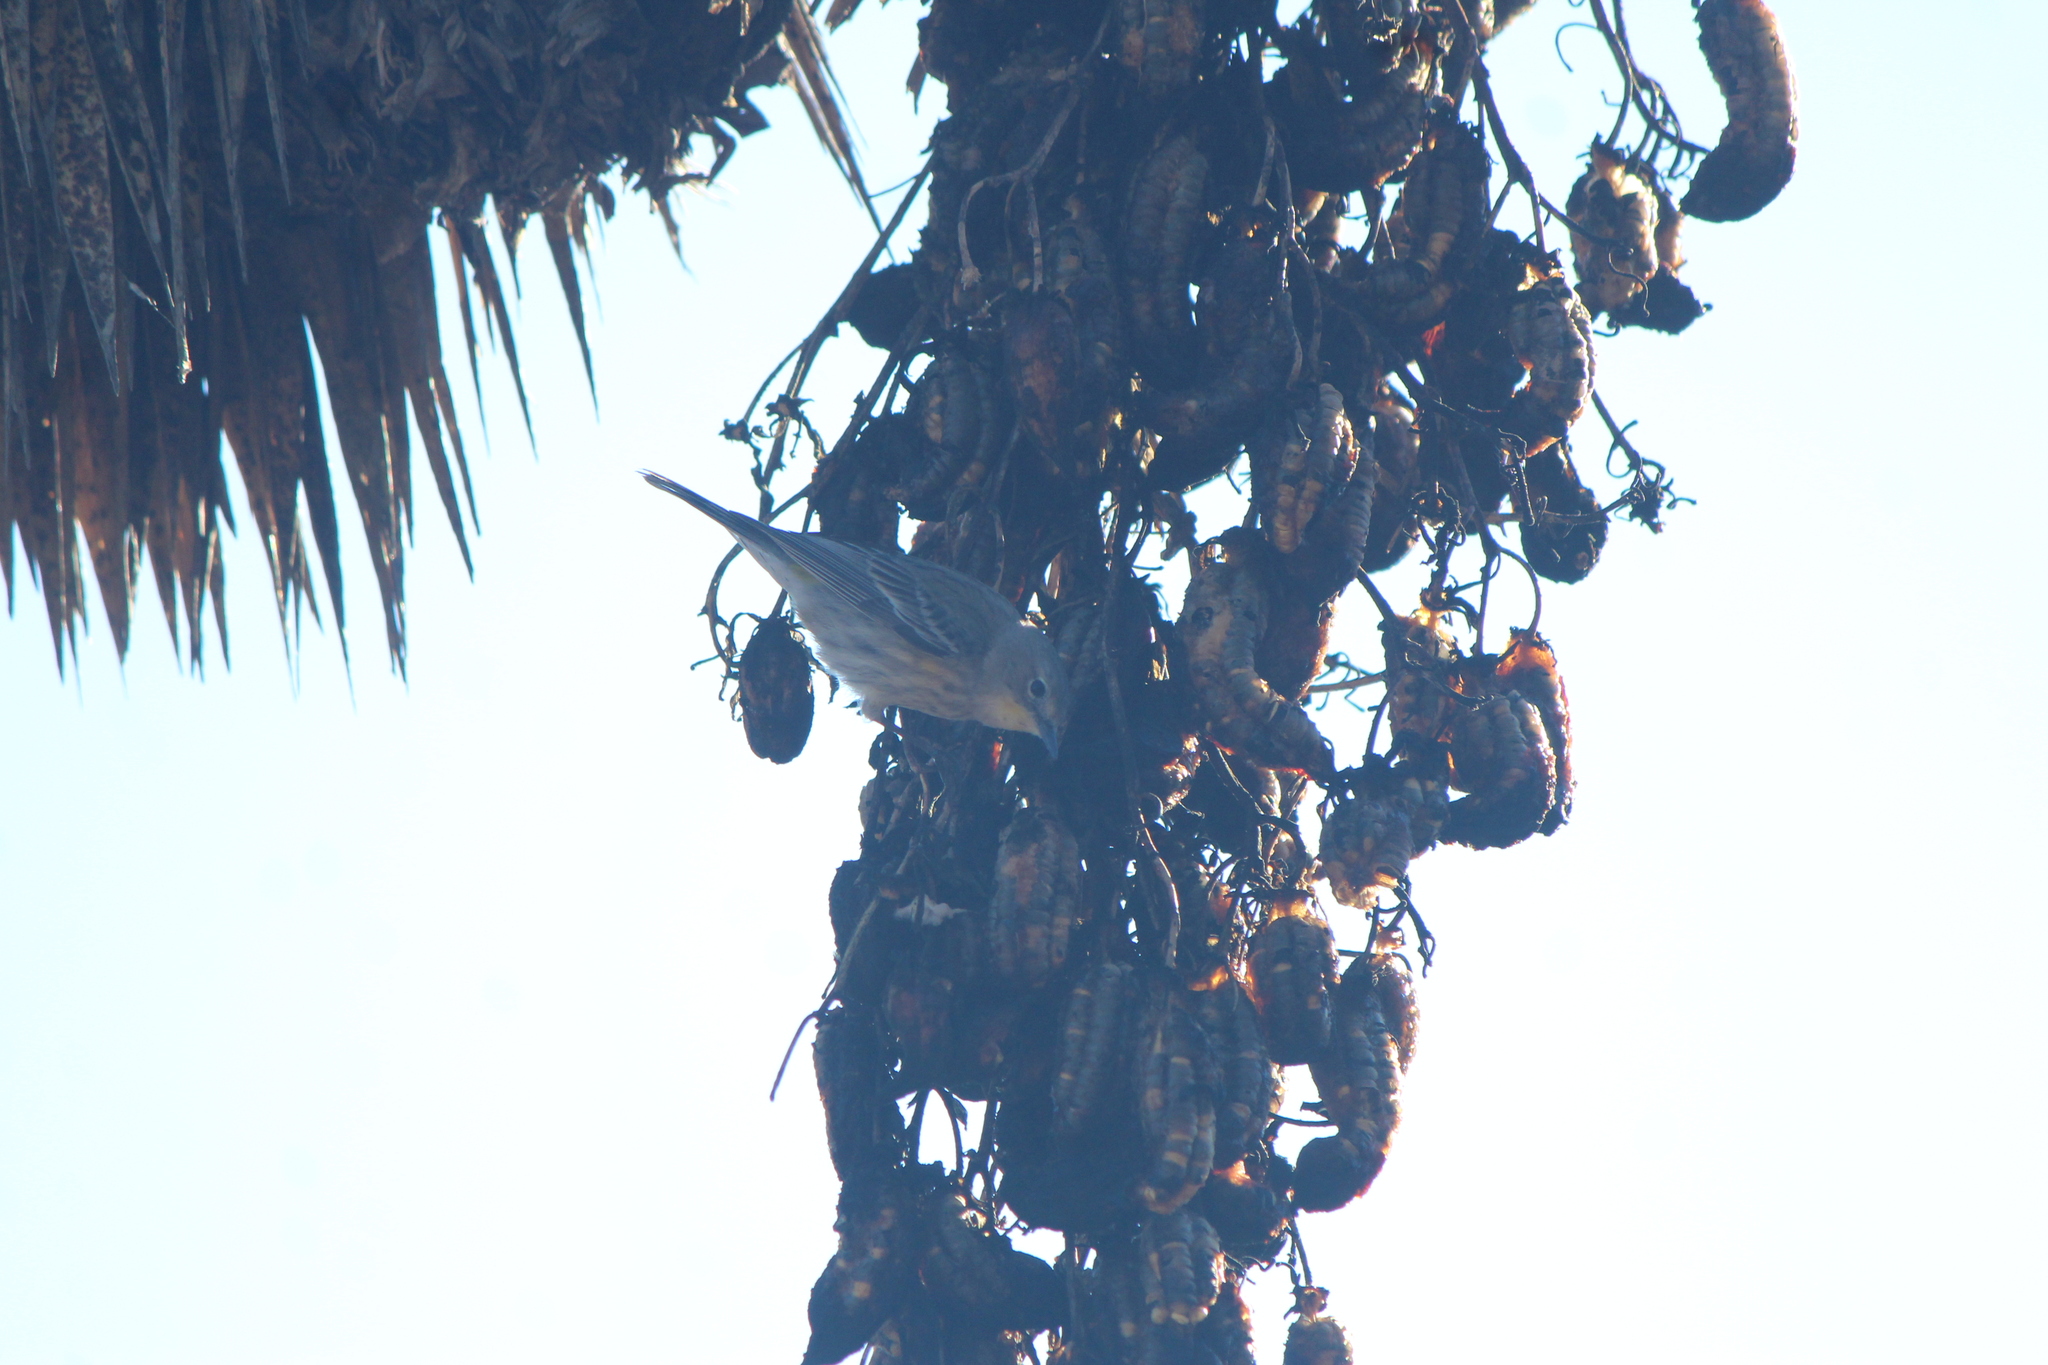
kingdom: Animalia
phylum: Chordata
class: Aves
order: Passeriformes
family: Parulidae
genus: Setophaga
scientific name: Setophaga coronata
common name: Myrtle warbler
